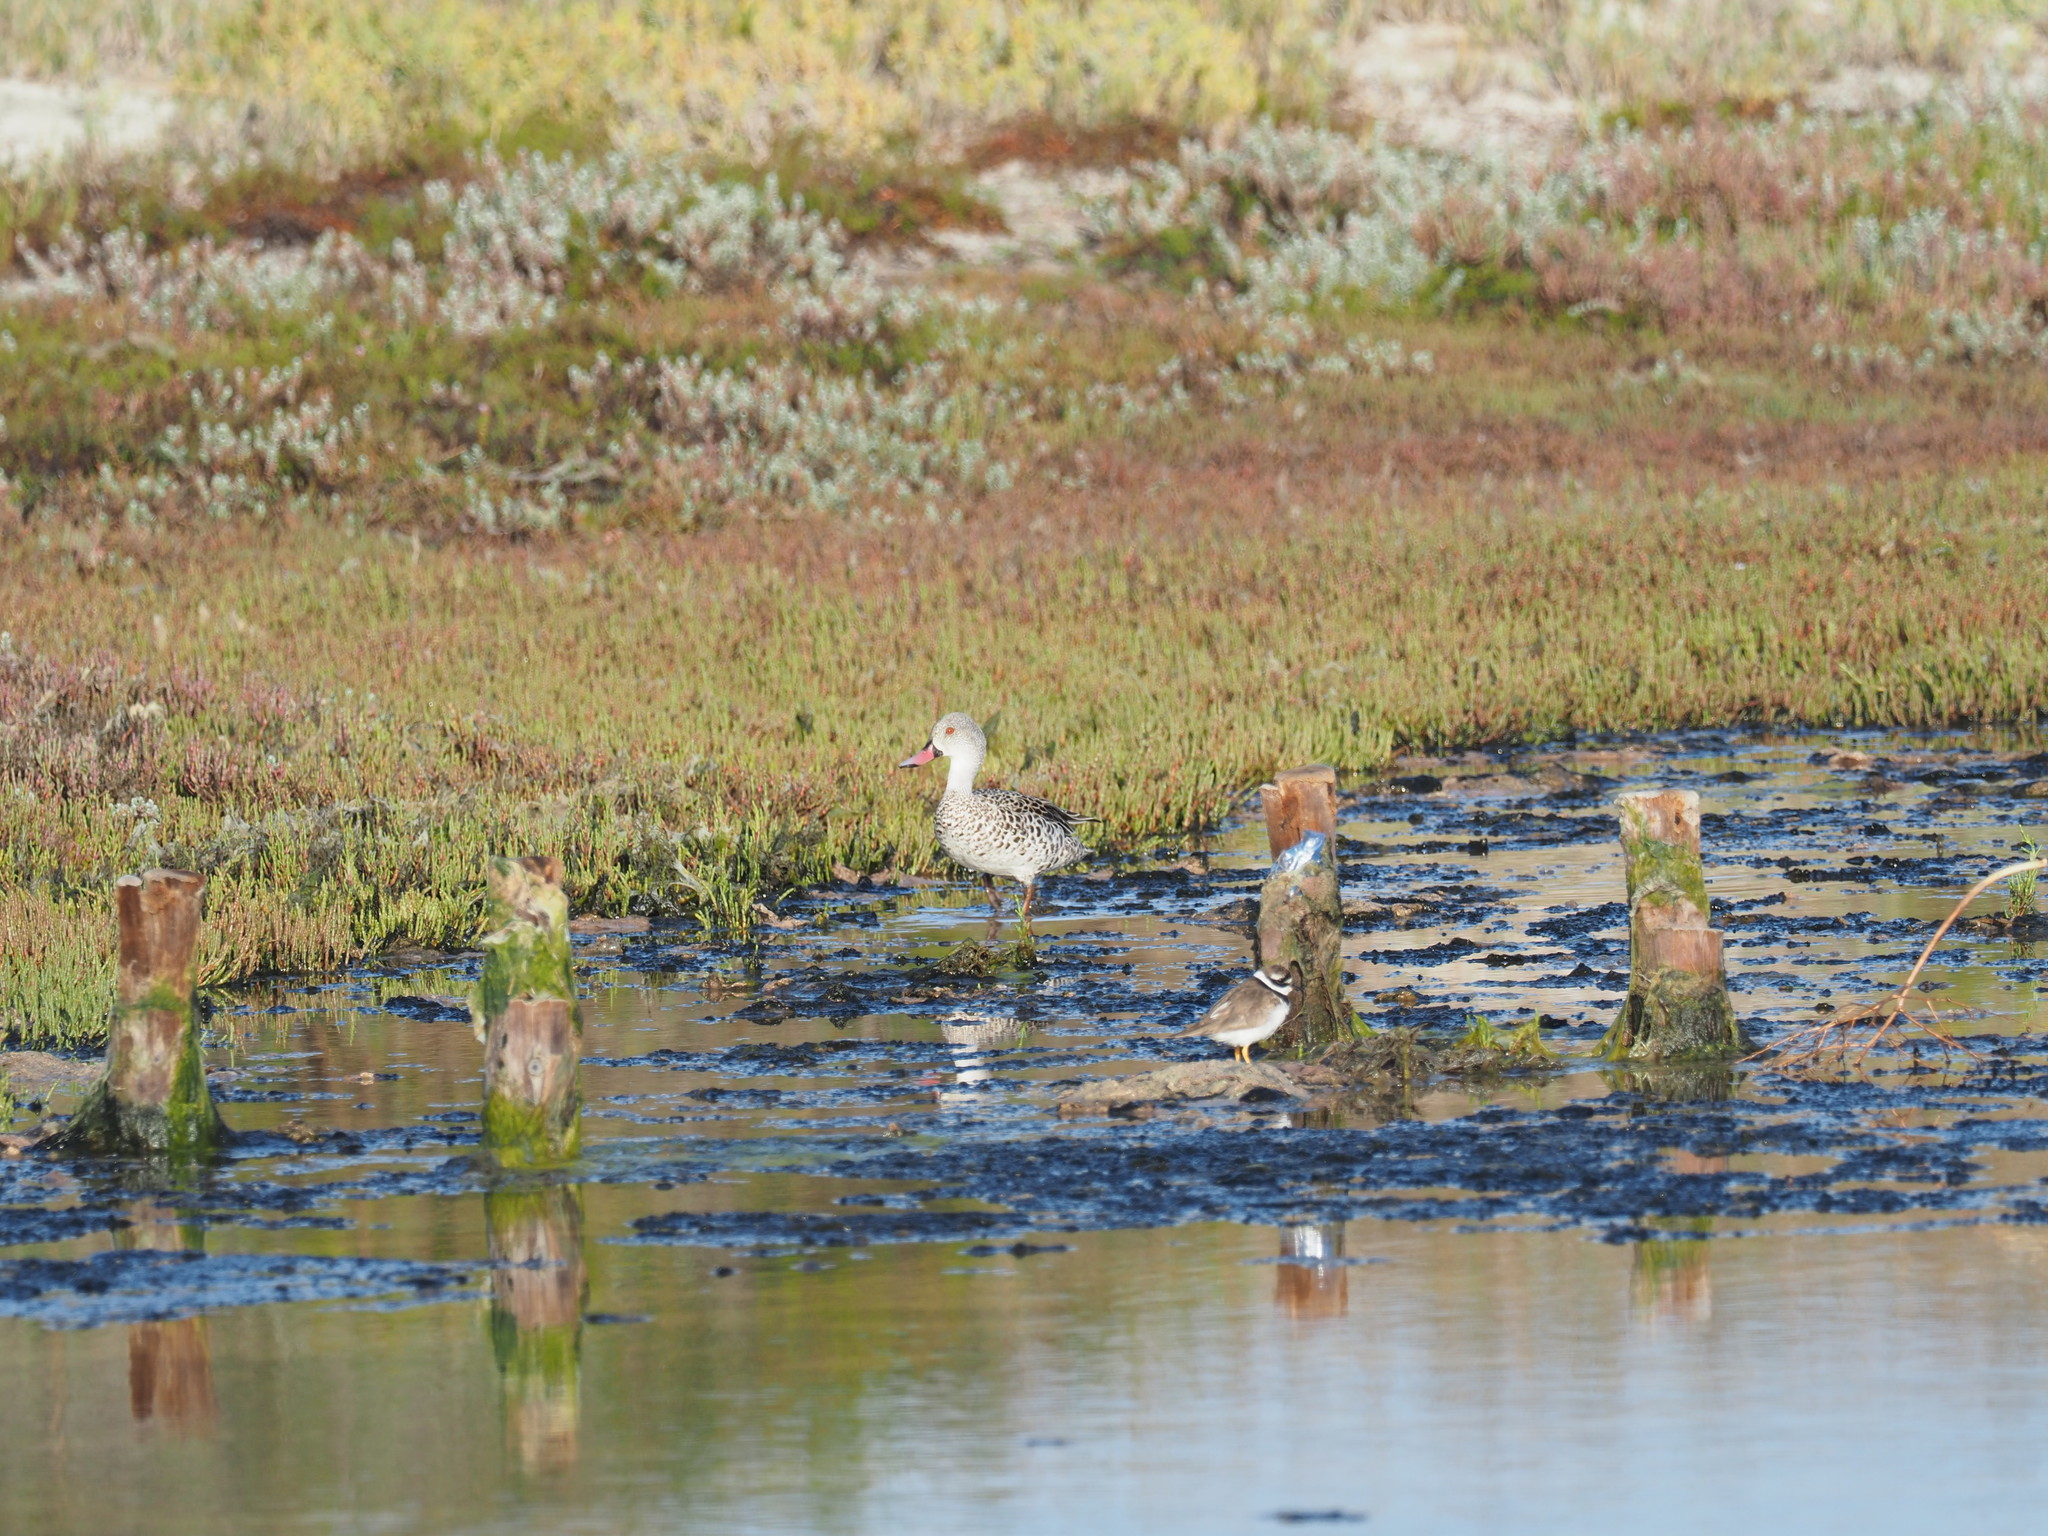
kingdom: Animalia
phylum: Chordata
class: Aves
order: Anseriformes
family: Anatidae
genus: Anas
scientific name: Anas capensis
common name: Cape teal
